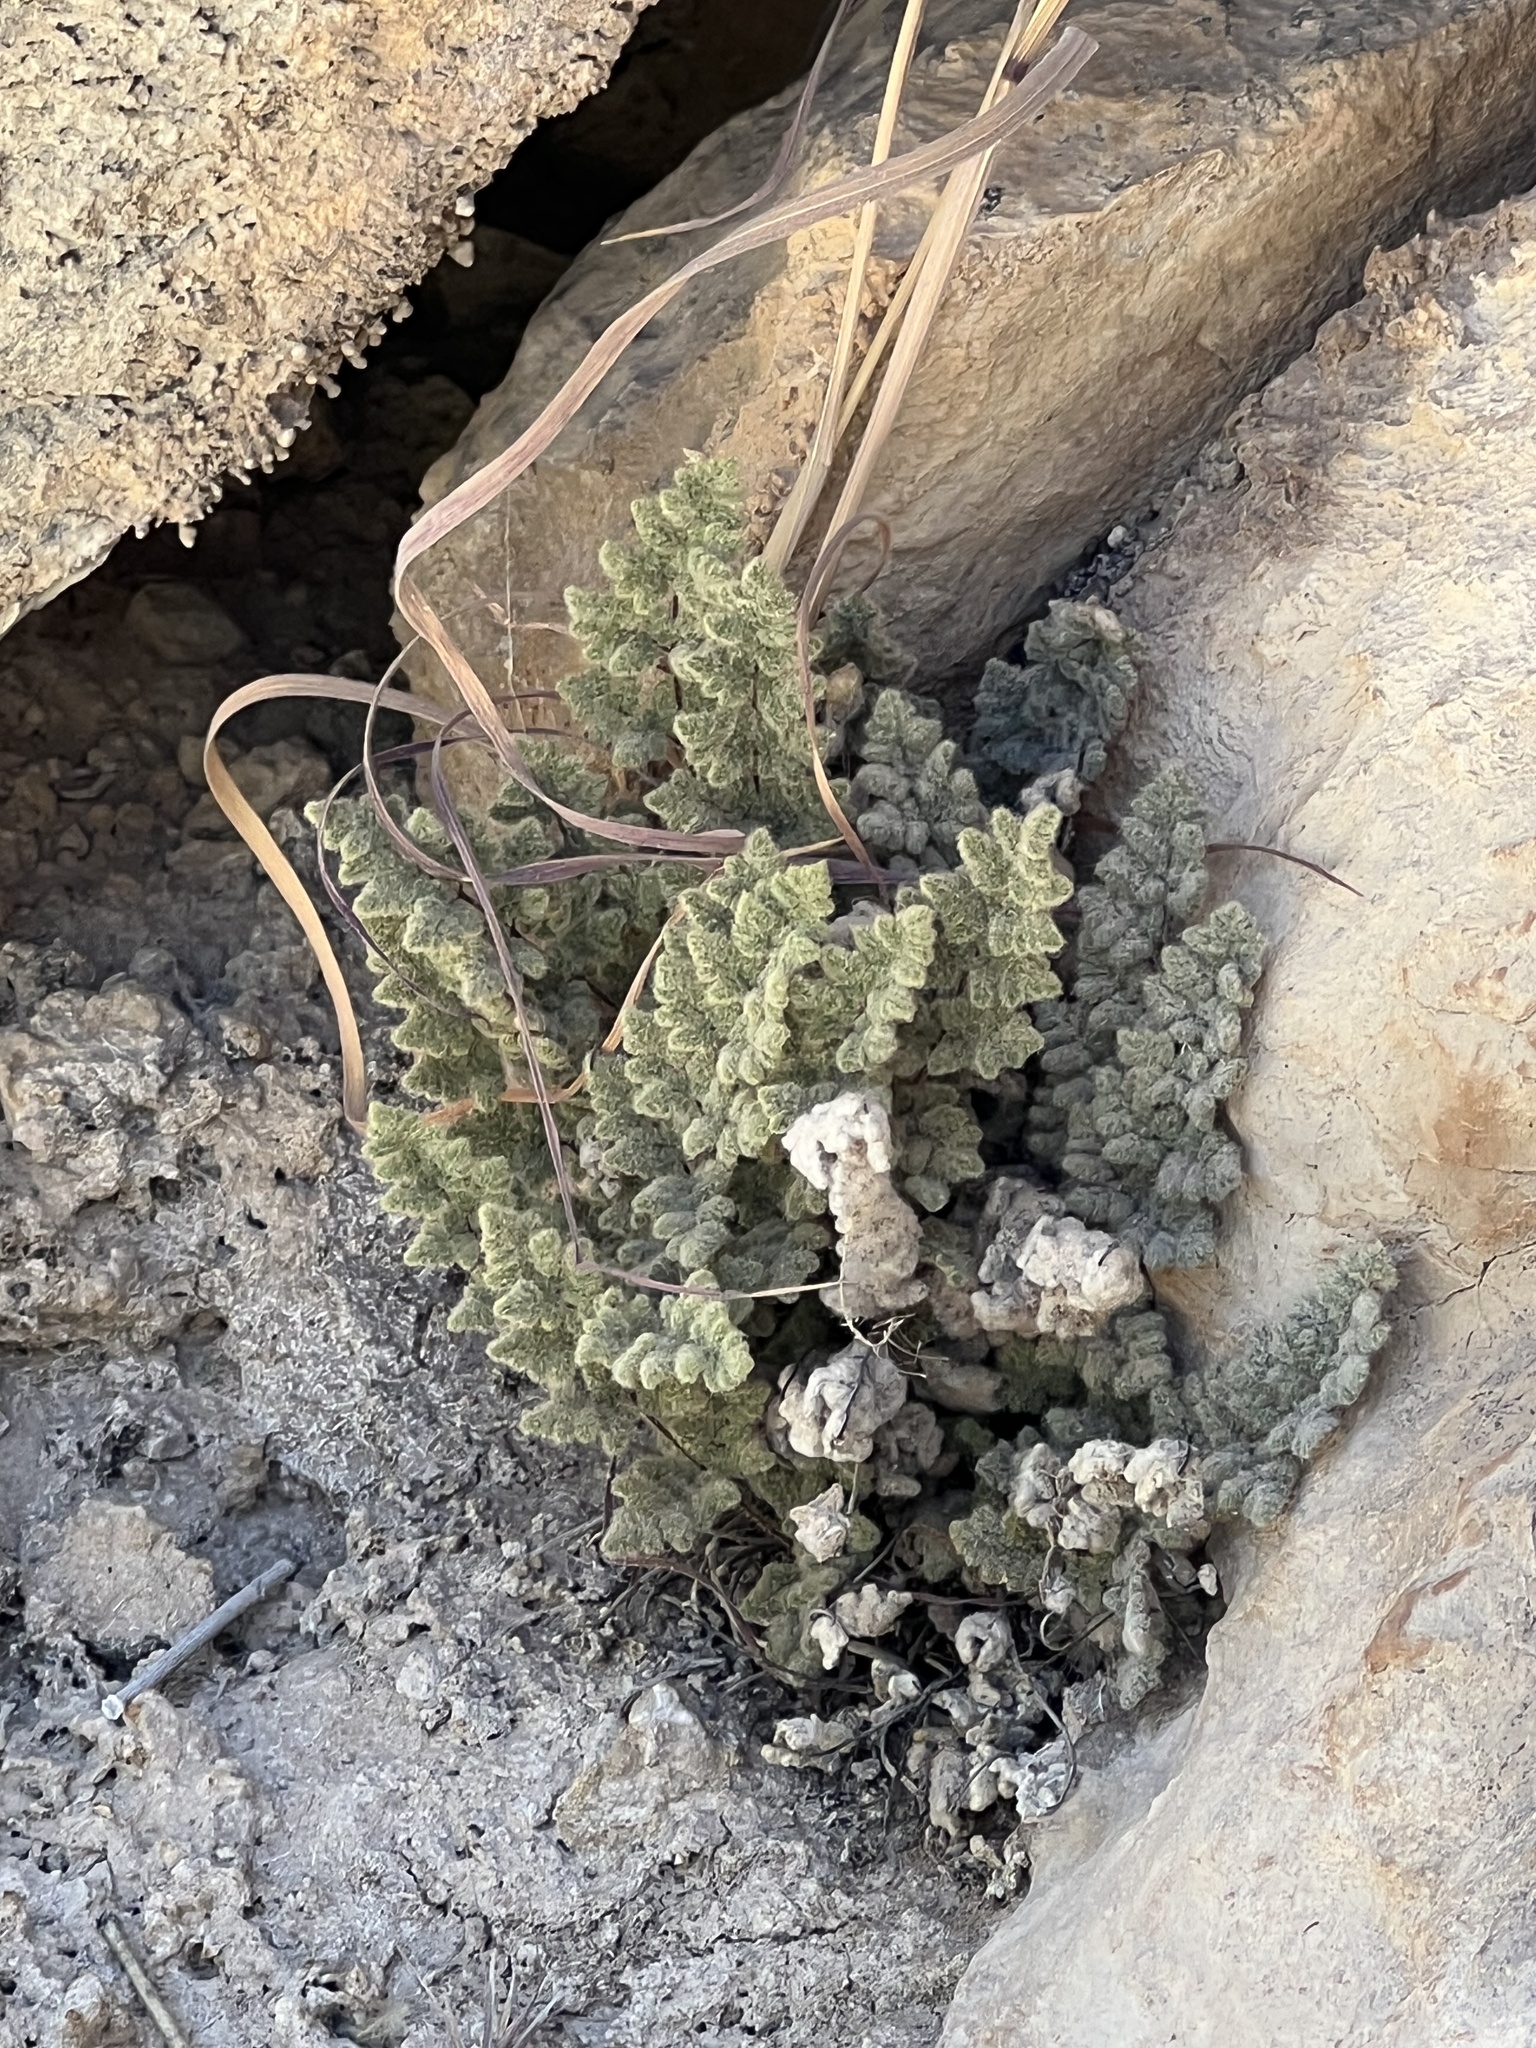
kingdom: Plantae
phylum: Tracheophyta
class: Polypodiopsida
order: Polypodiales
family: Pteridaceae
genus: Myriopteris
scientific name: Myriopteris parryi
